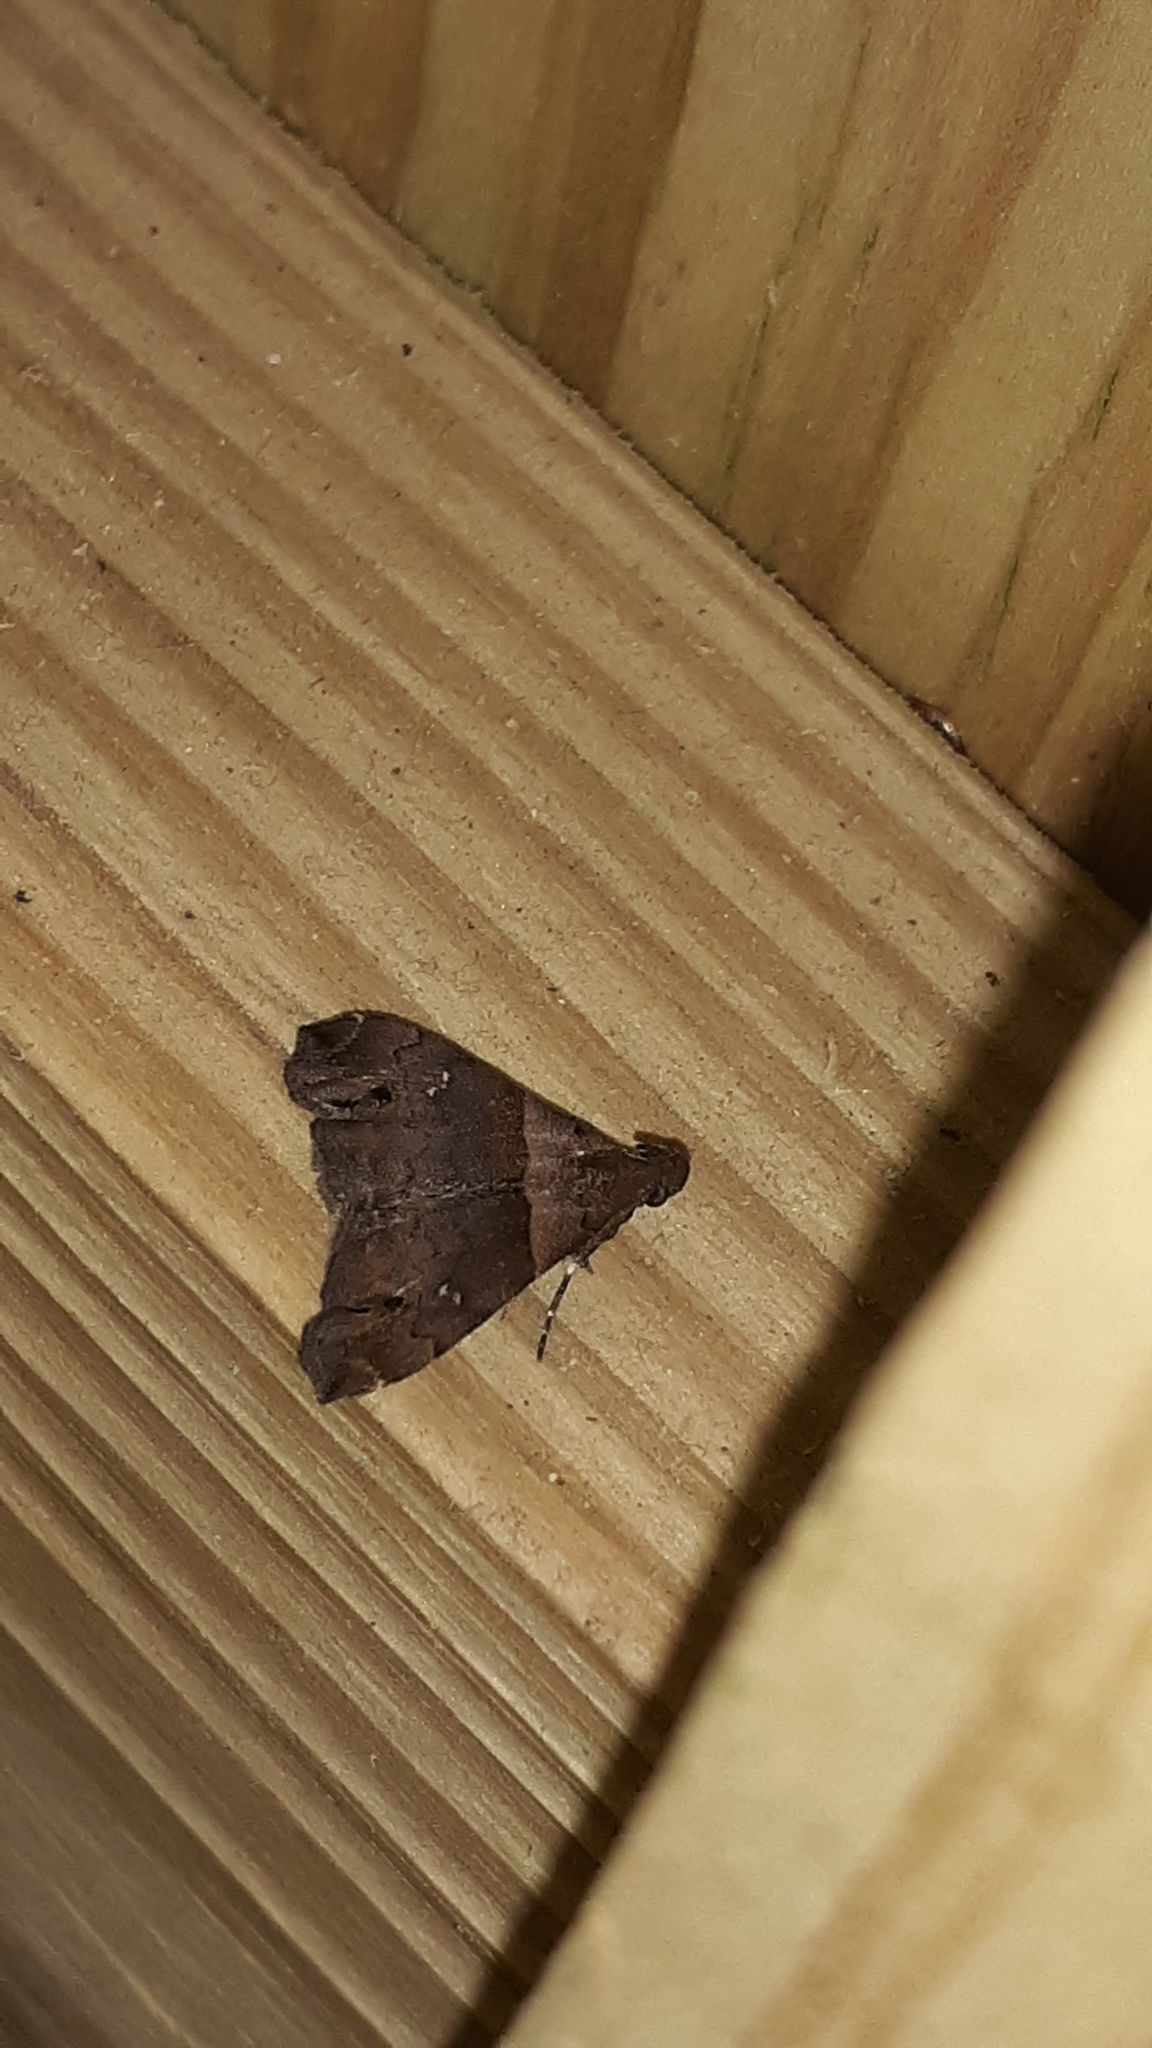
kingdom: Animalia
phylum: Arthropoda
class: Insecta
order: Lepidoptera
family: Erebidae
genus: Lascoria
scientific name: Lascoria ambigualis
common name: Ambiguous moth
